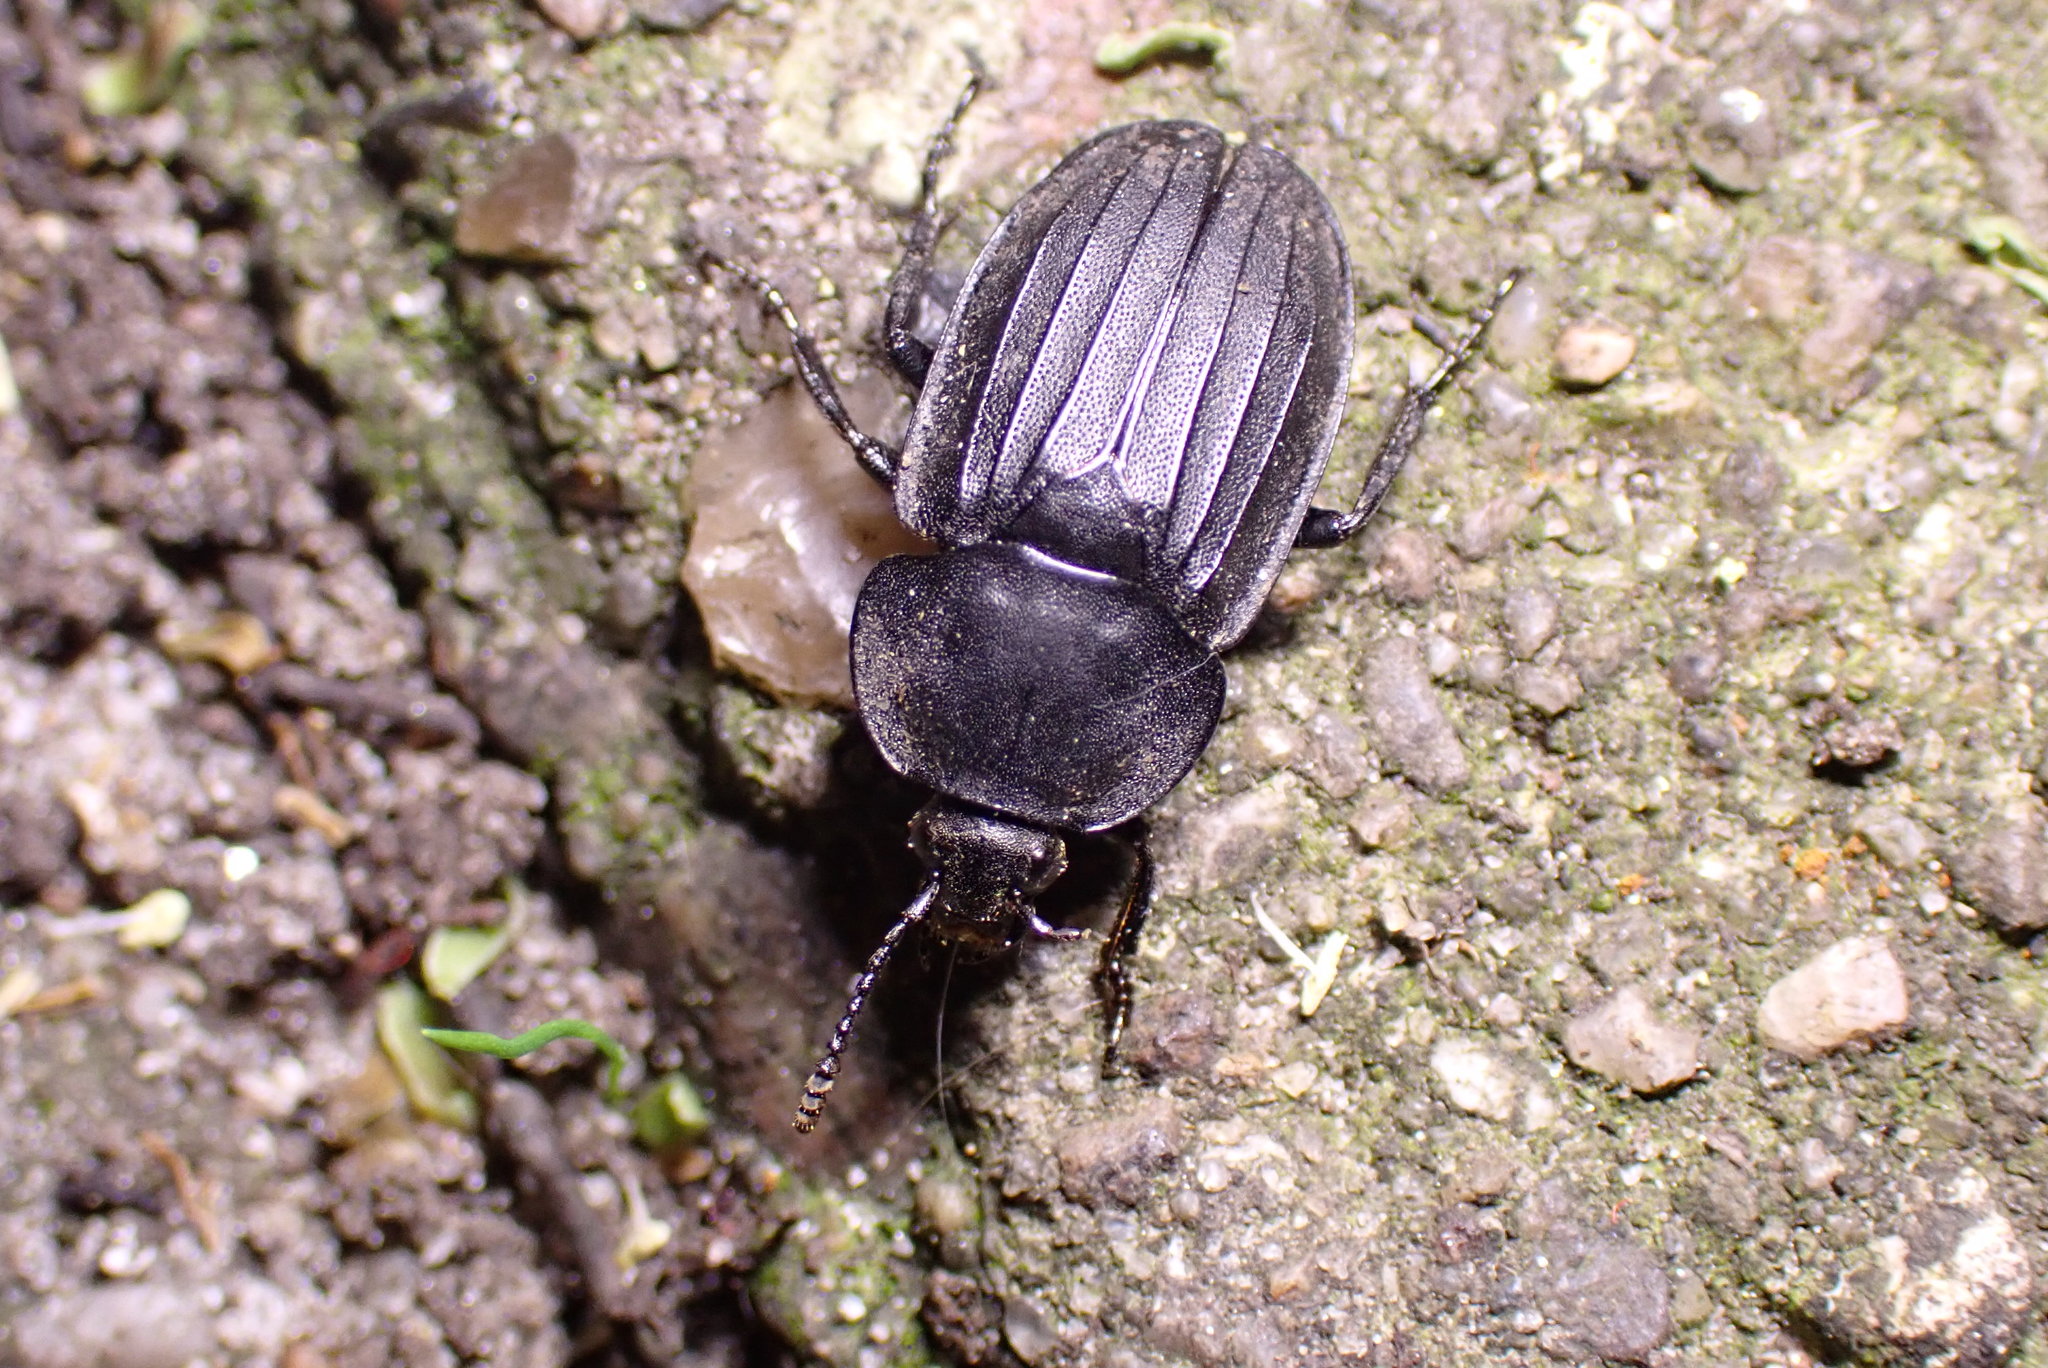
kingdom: Animalia
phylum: Arthropoda
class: Insecta
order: Coleoptera
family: Staphylinidae
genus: Silpha
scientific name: Silpha tristis
